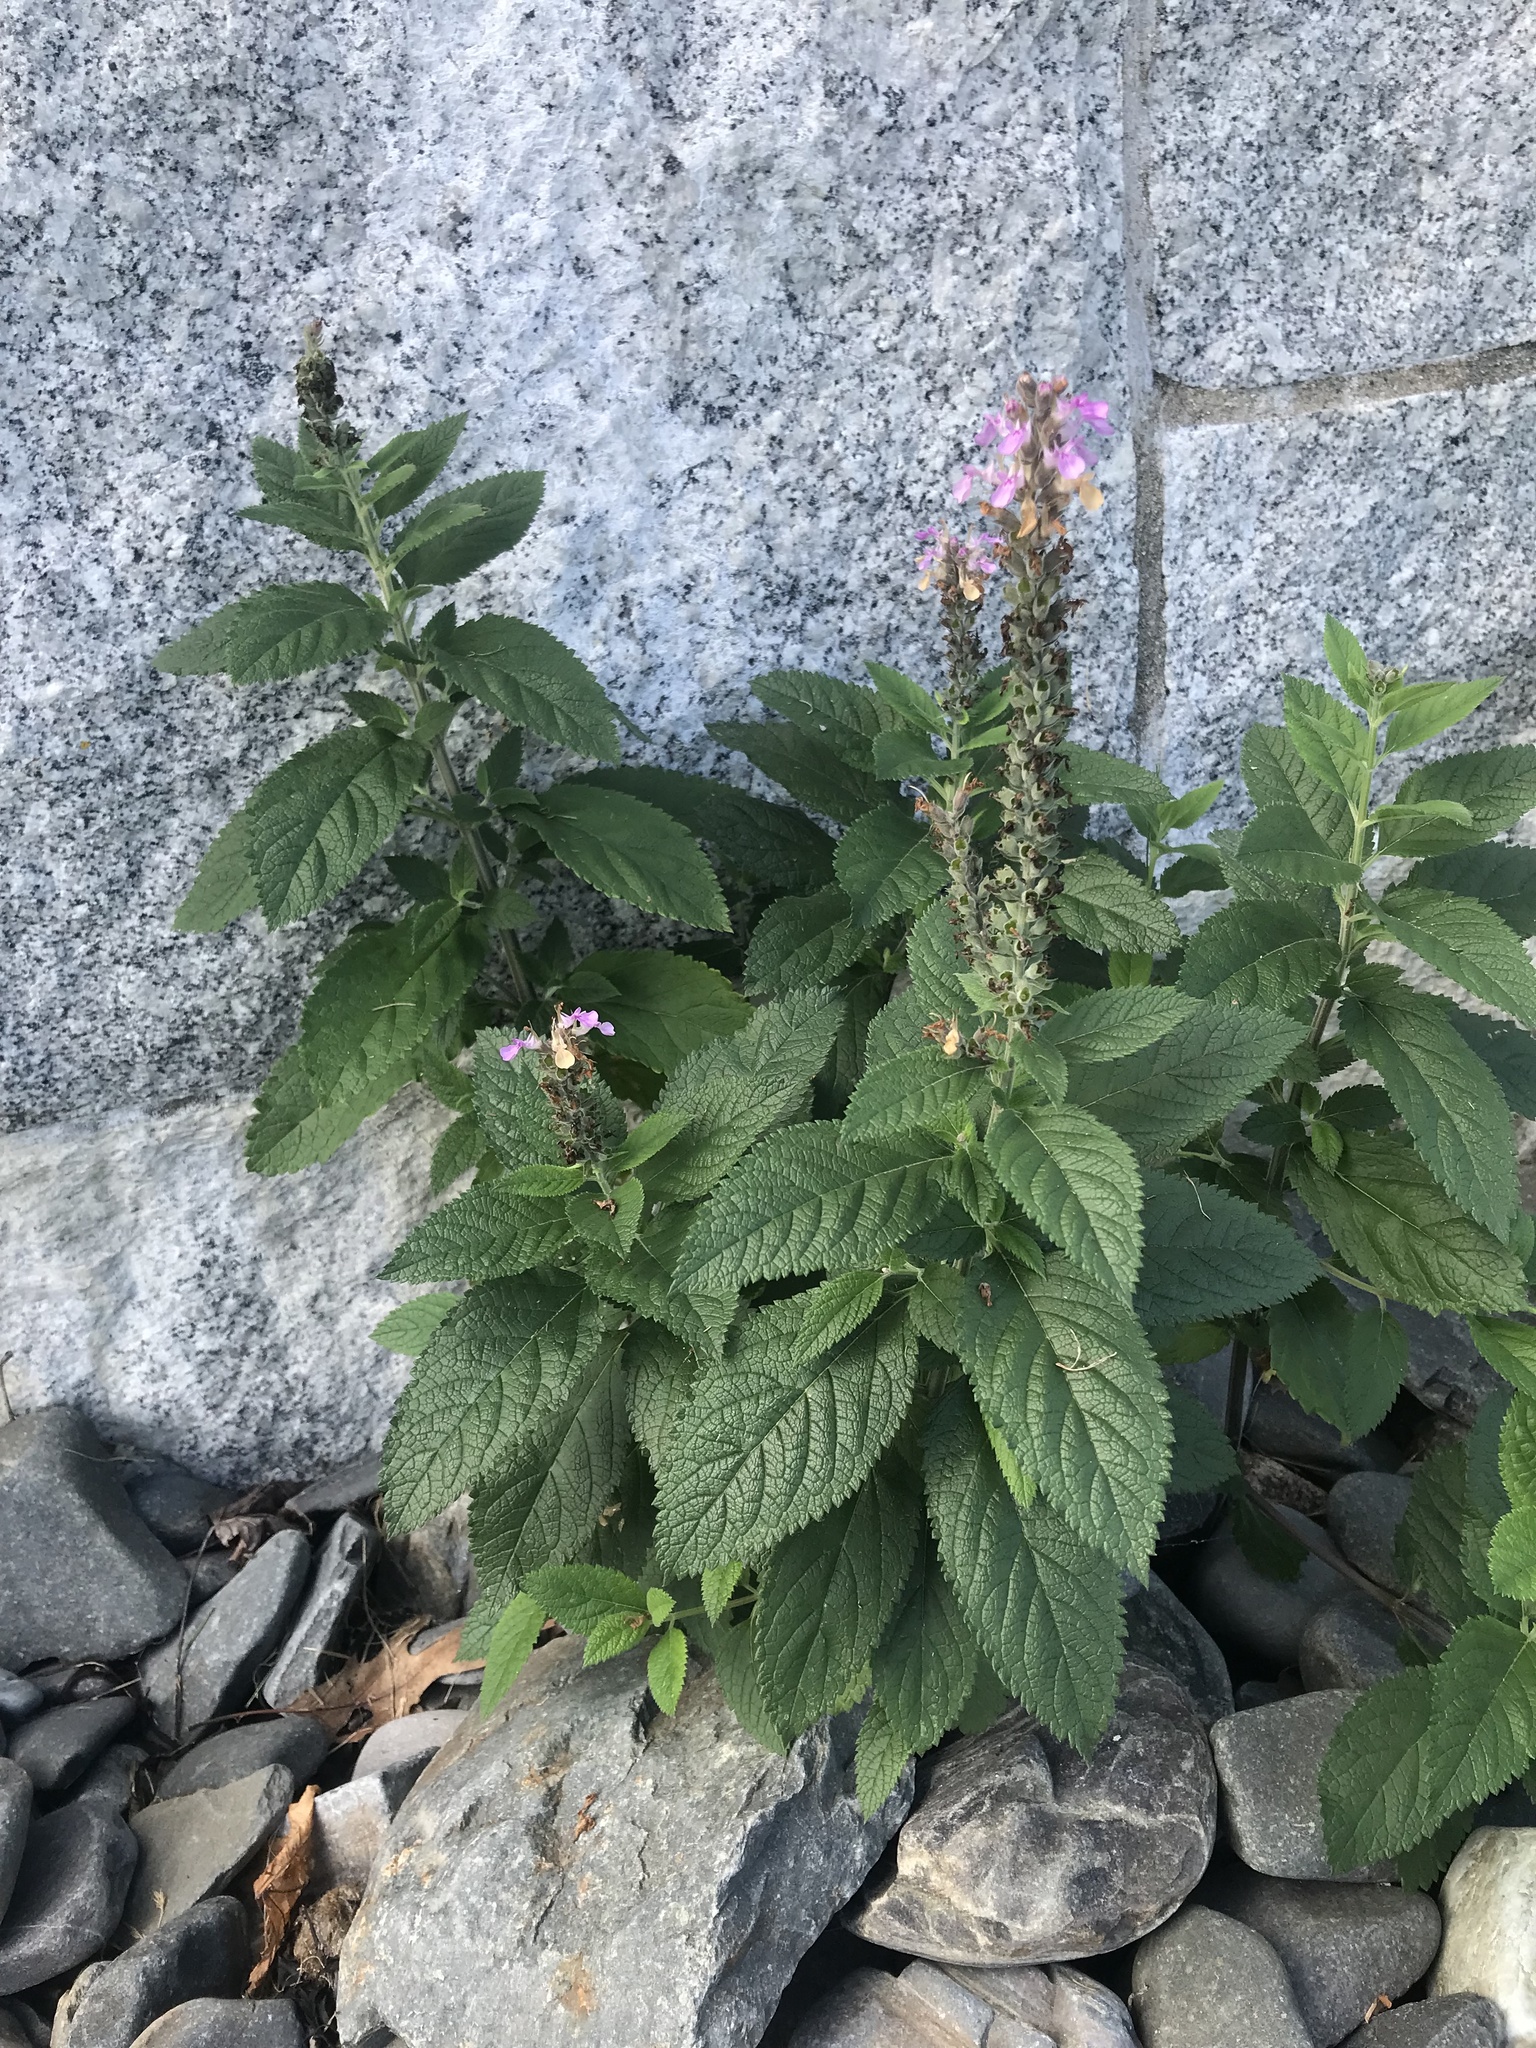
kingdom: Plantae
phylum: Tracheophyta
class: Magnoliopsida
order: Lamiales
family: Lamiaceae
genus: Teucrium
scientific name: Teucrium canadense
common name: American germander
